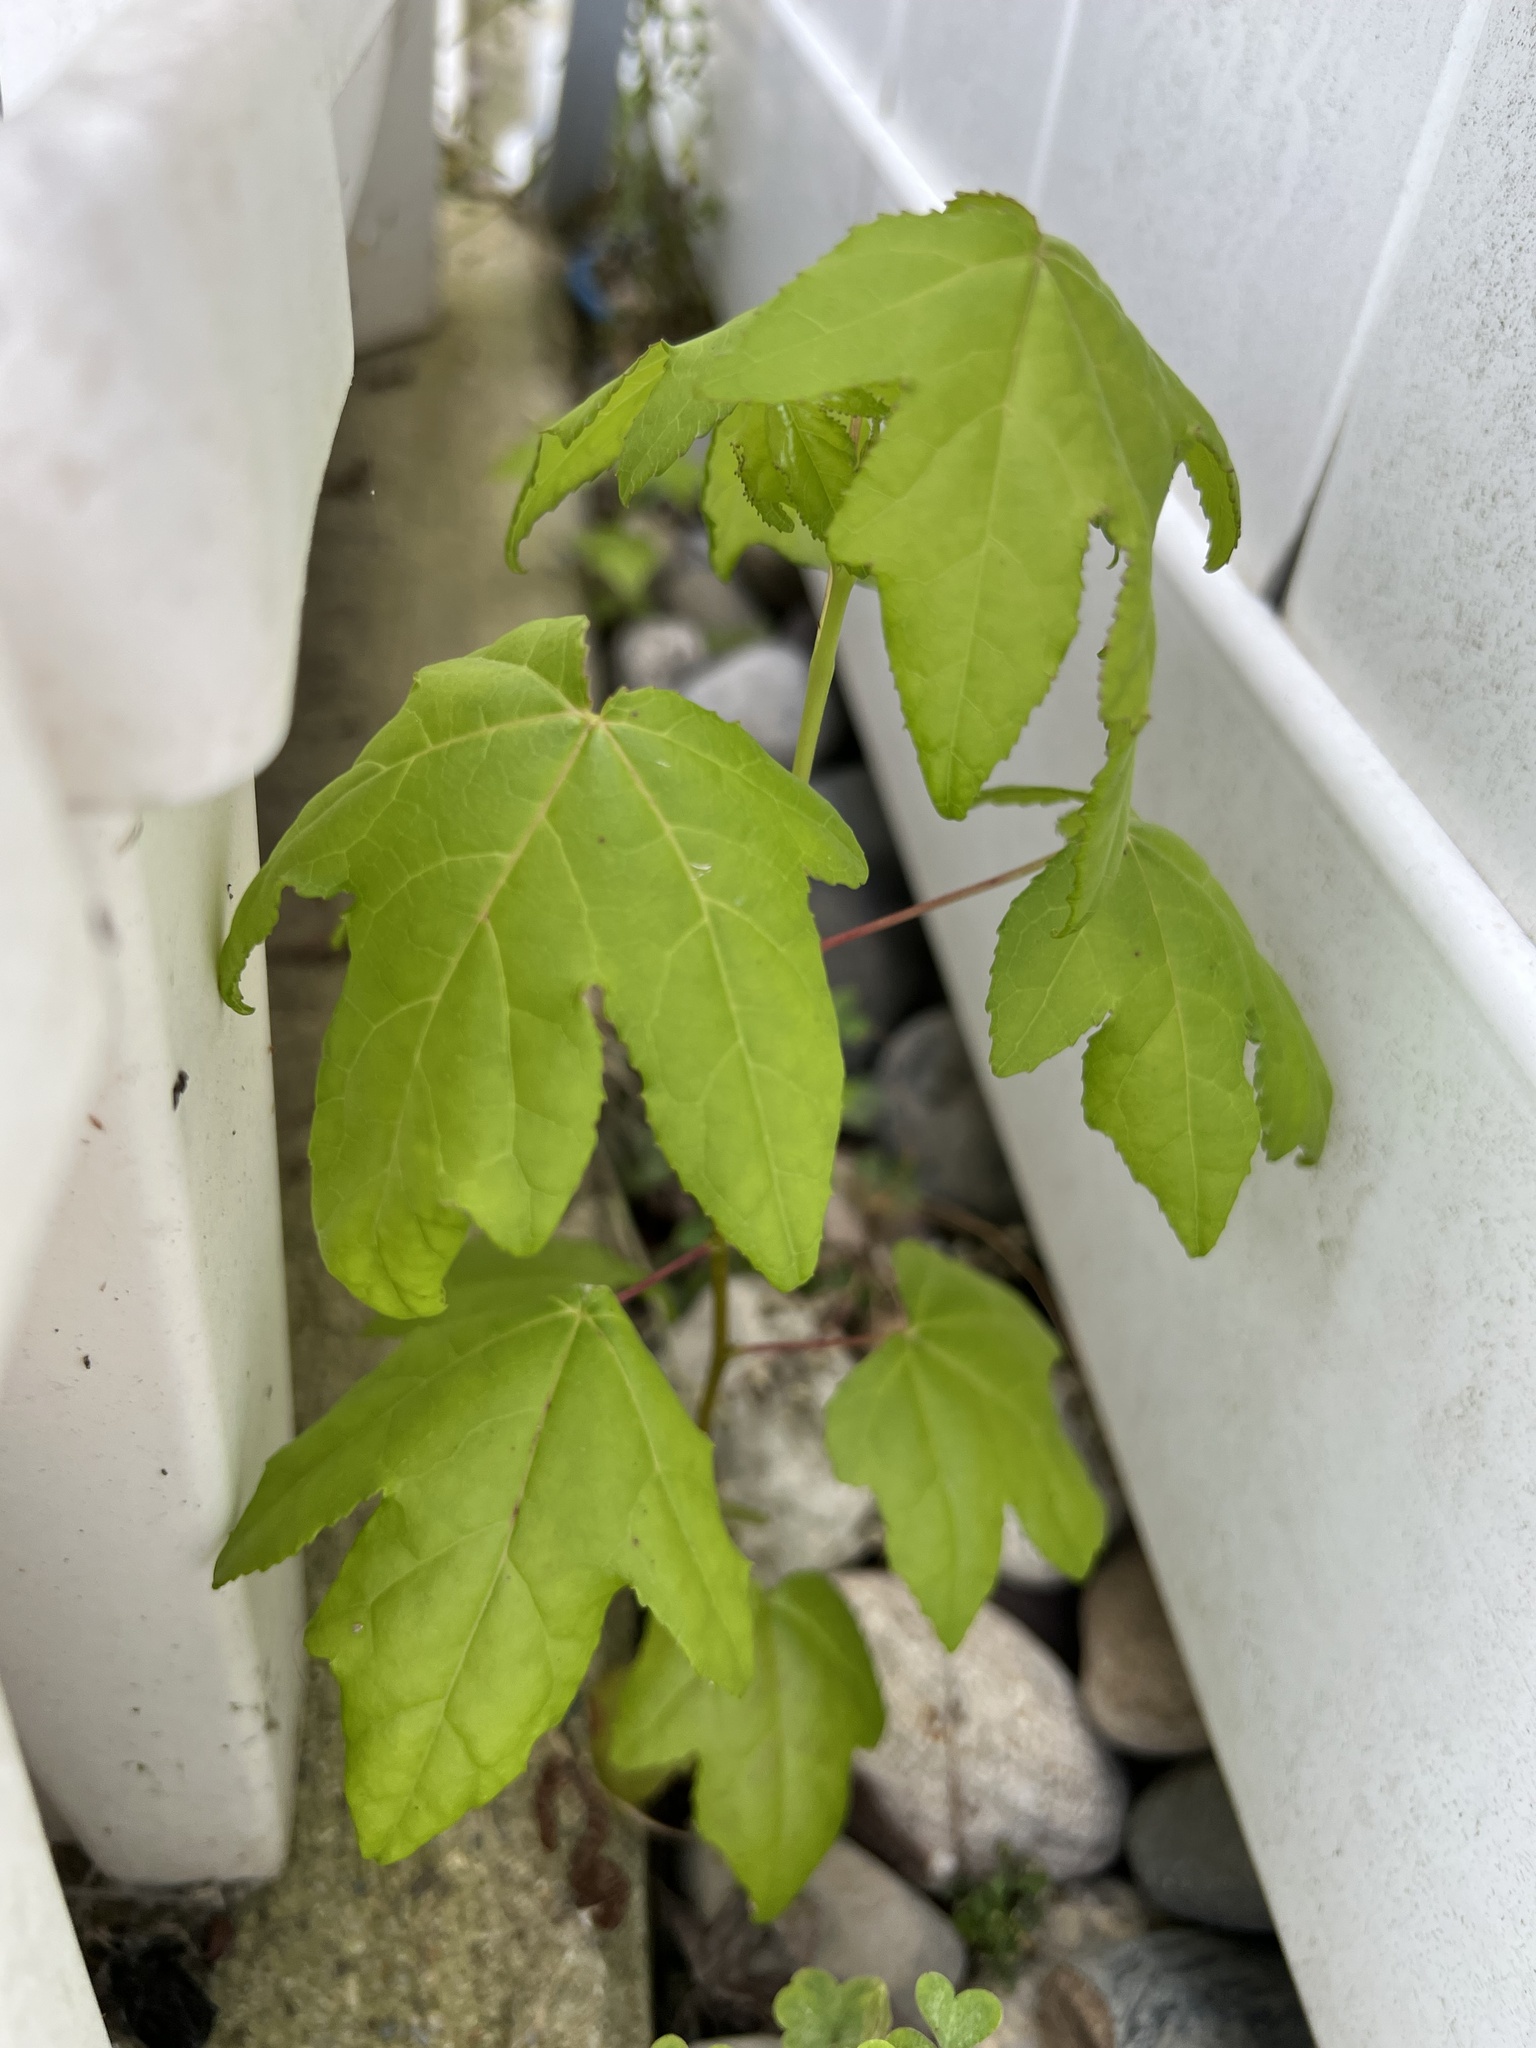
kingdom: Plantae
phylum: Tracheophyta
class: Magnoliopsida
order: Saxifragales
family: Altingiaceae
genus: Liquidambar
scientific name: Liquidambar styraciflua
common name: Sweet gum
